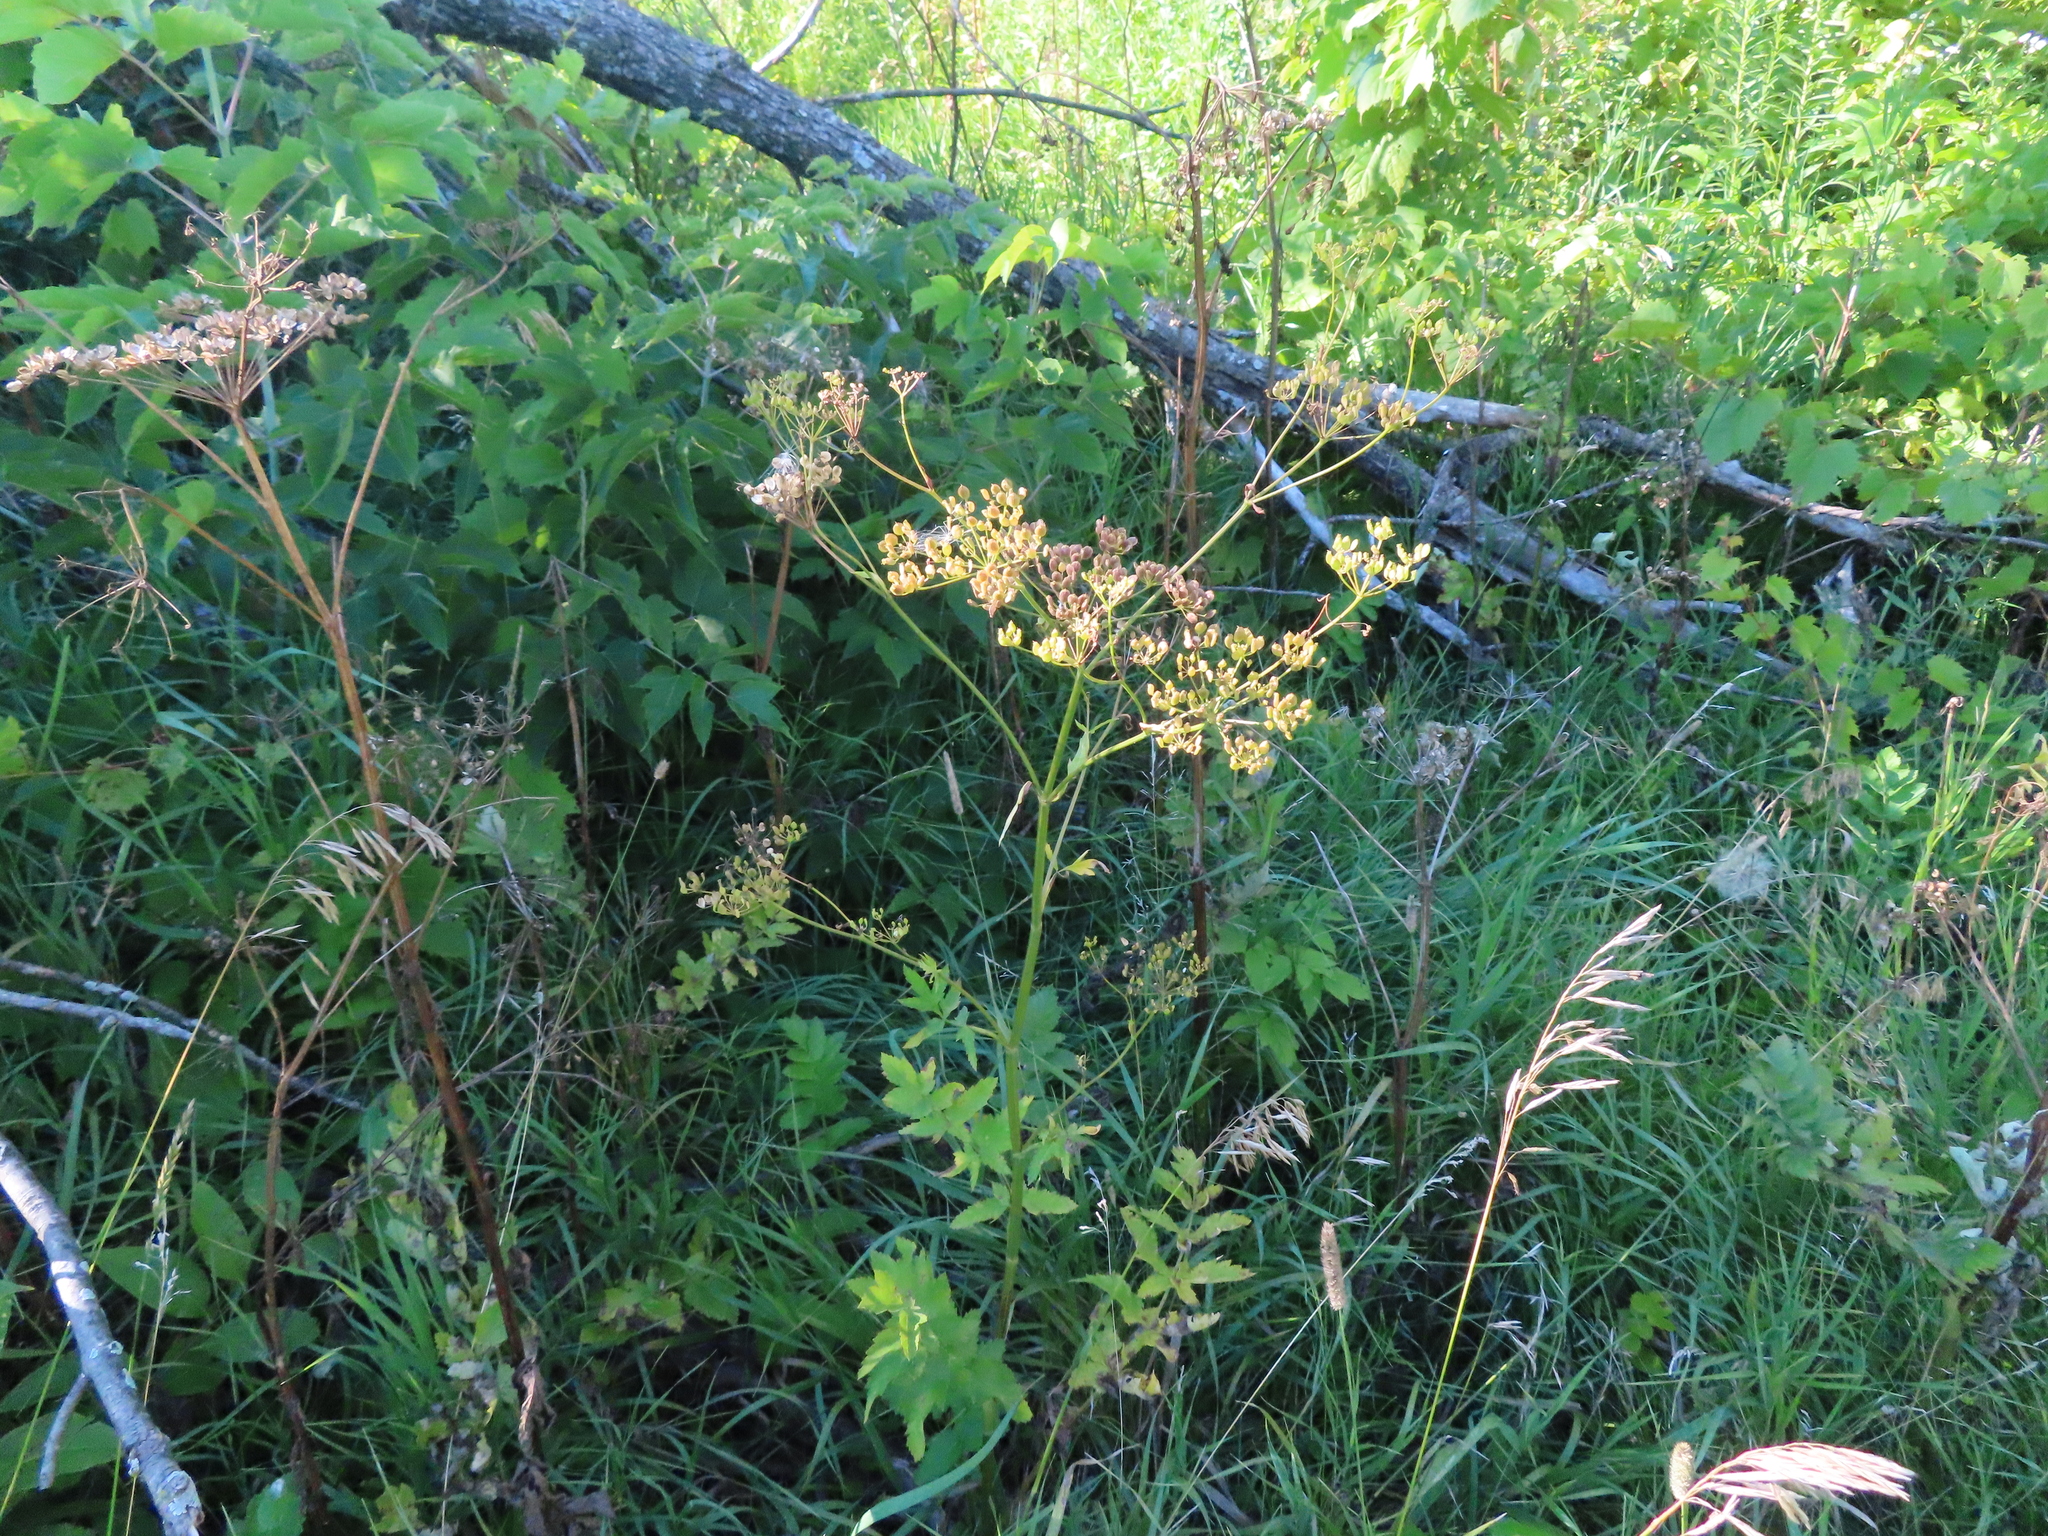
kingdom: Plantae
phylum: Tracheophyta
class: Magnoliopsida
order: Apiales
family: Apiaceae
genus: Pastinaca
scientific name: Pastinaca sativa
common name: Wild parsnip
